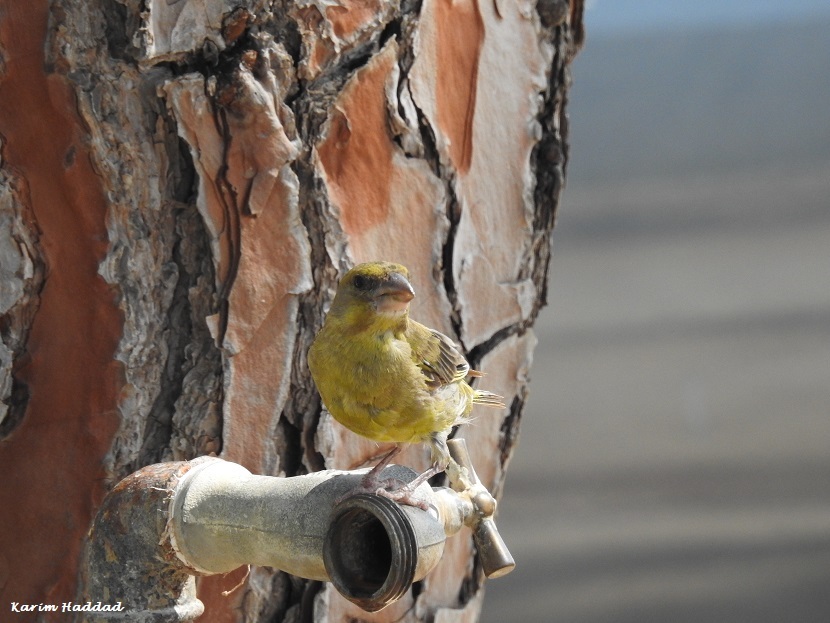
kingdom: Plantae
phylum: Tracheophyta
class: Liliopsida
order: Poales
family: Poaceae
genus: Chloris
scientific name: Chloris chloris
